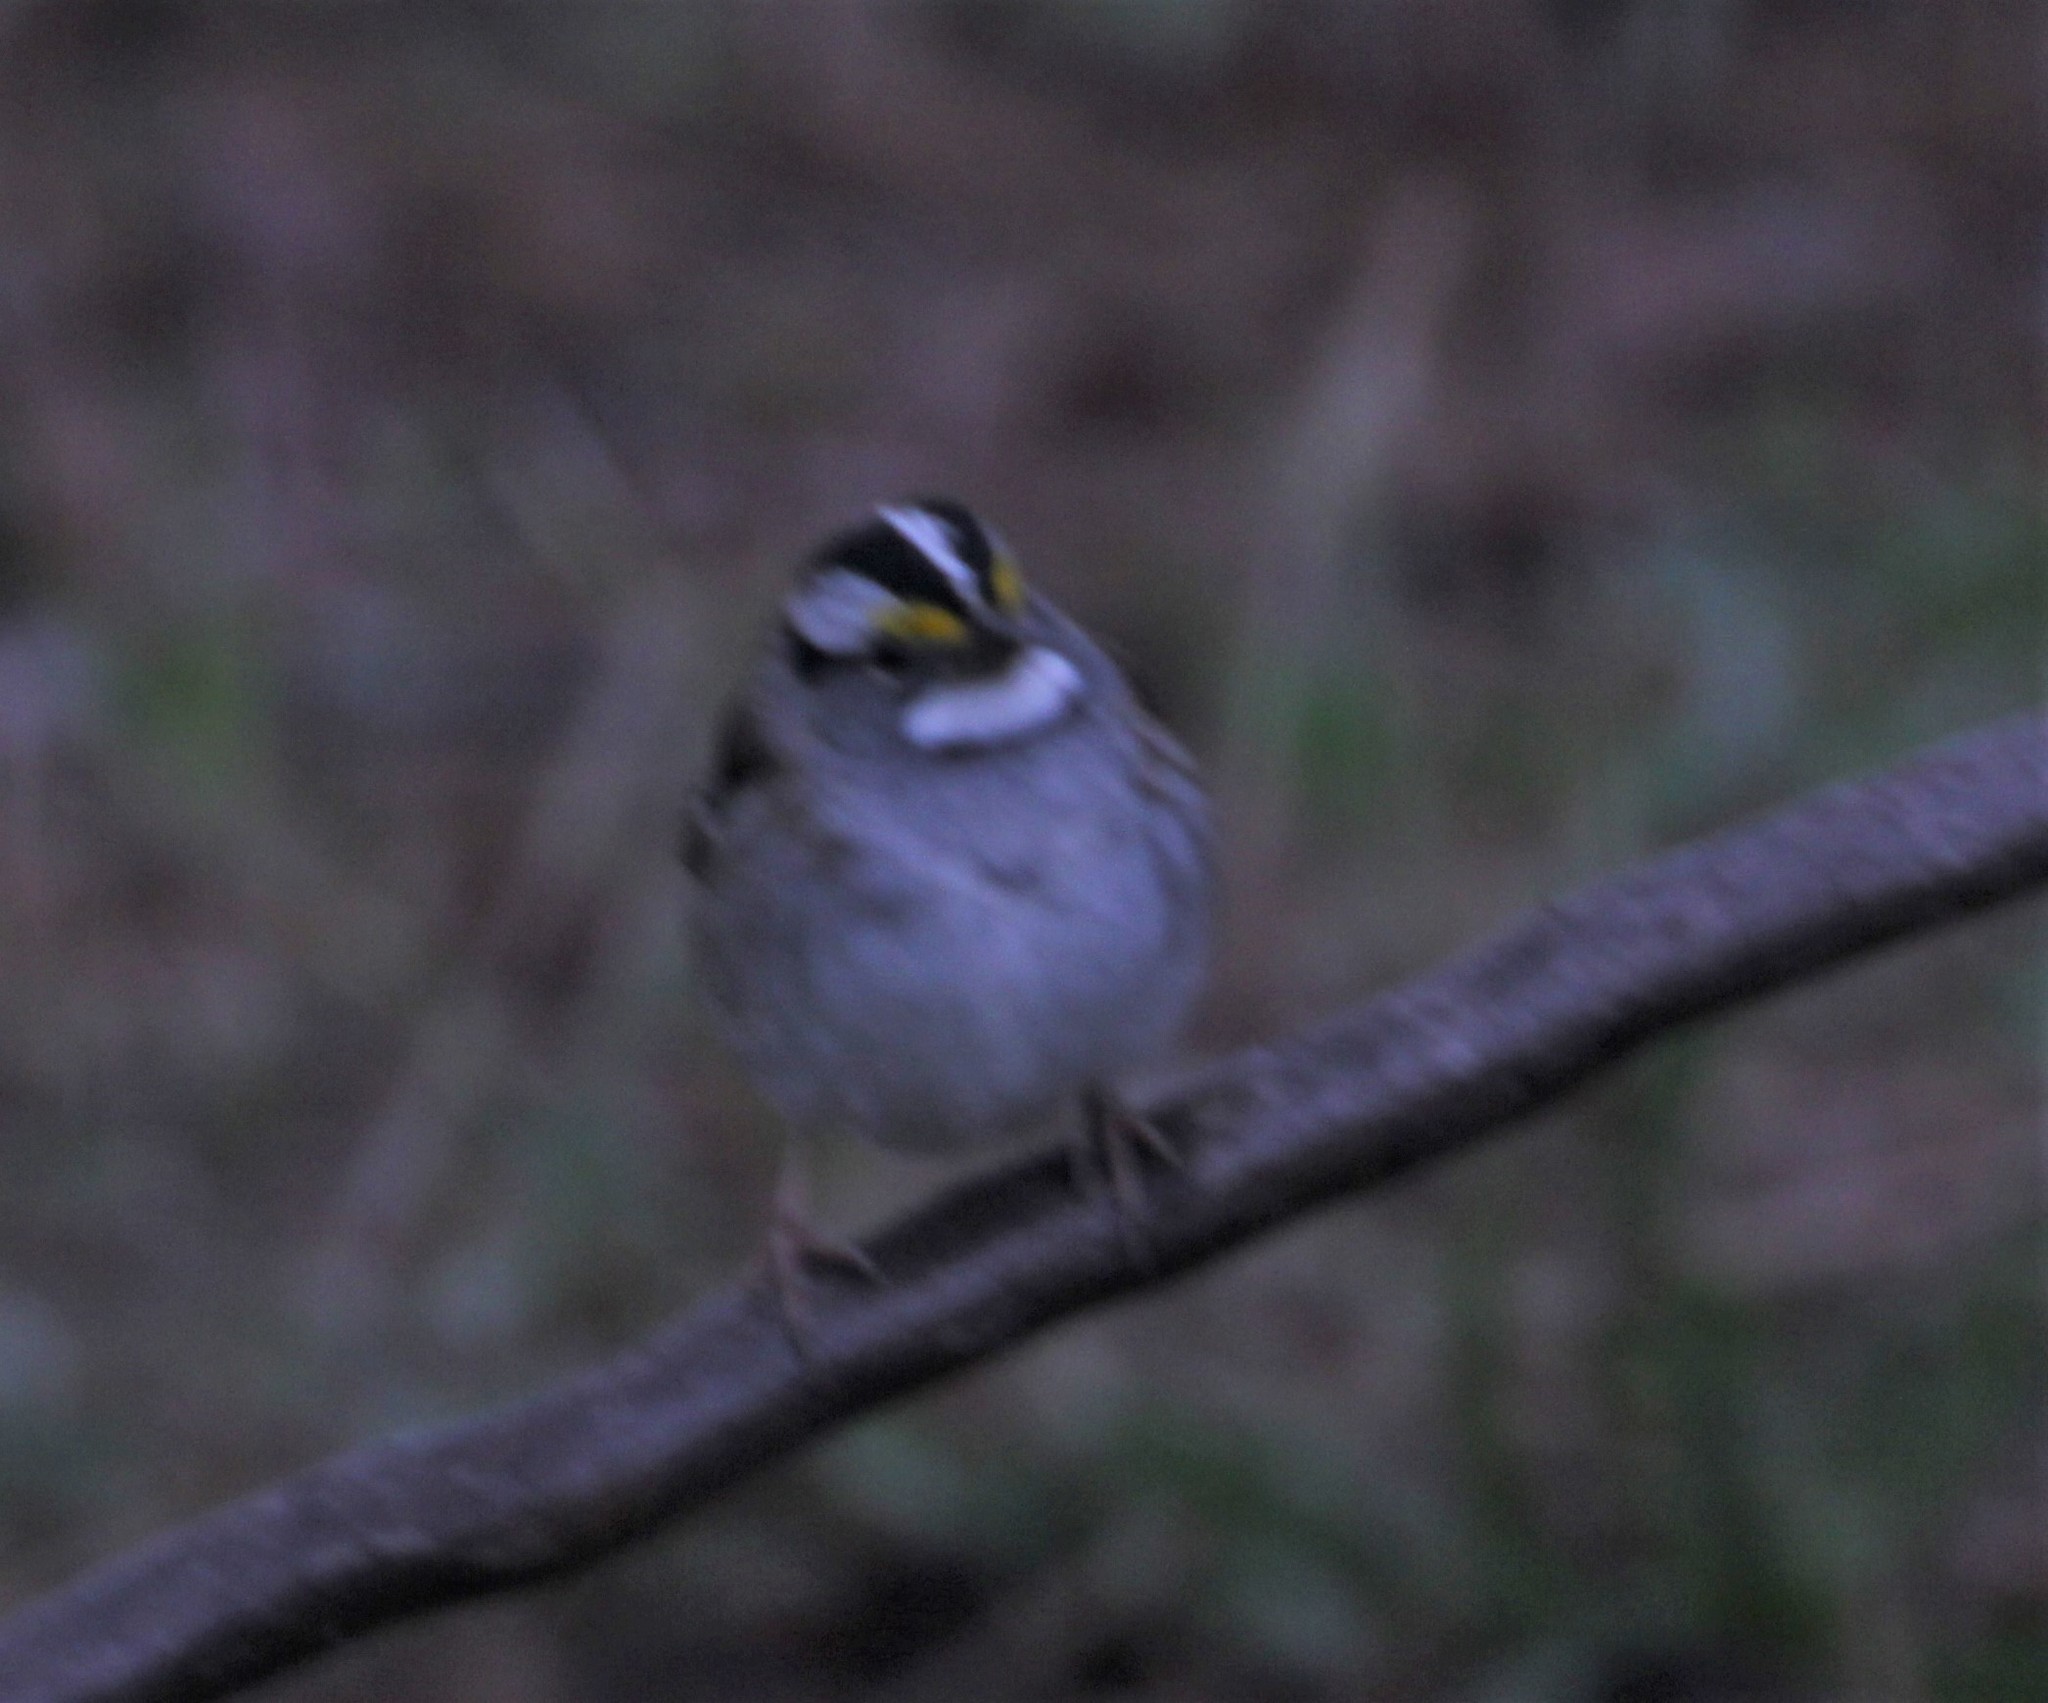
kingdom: Animalia
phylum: Chordata
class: Aves
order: Passeriformes
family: Passerellidae
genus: Zonotrichia
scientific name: Zonotrichia albicollis
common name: White-throated sparrow
